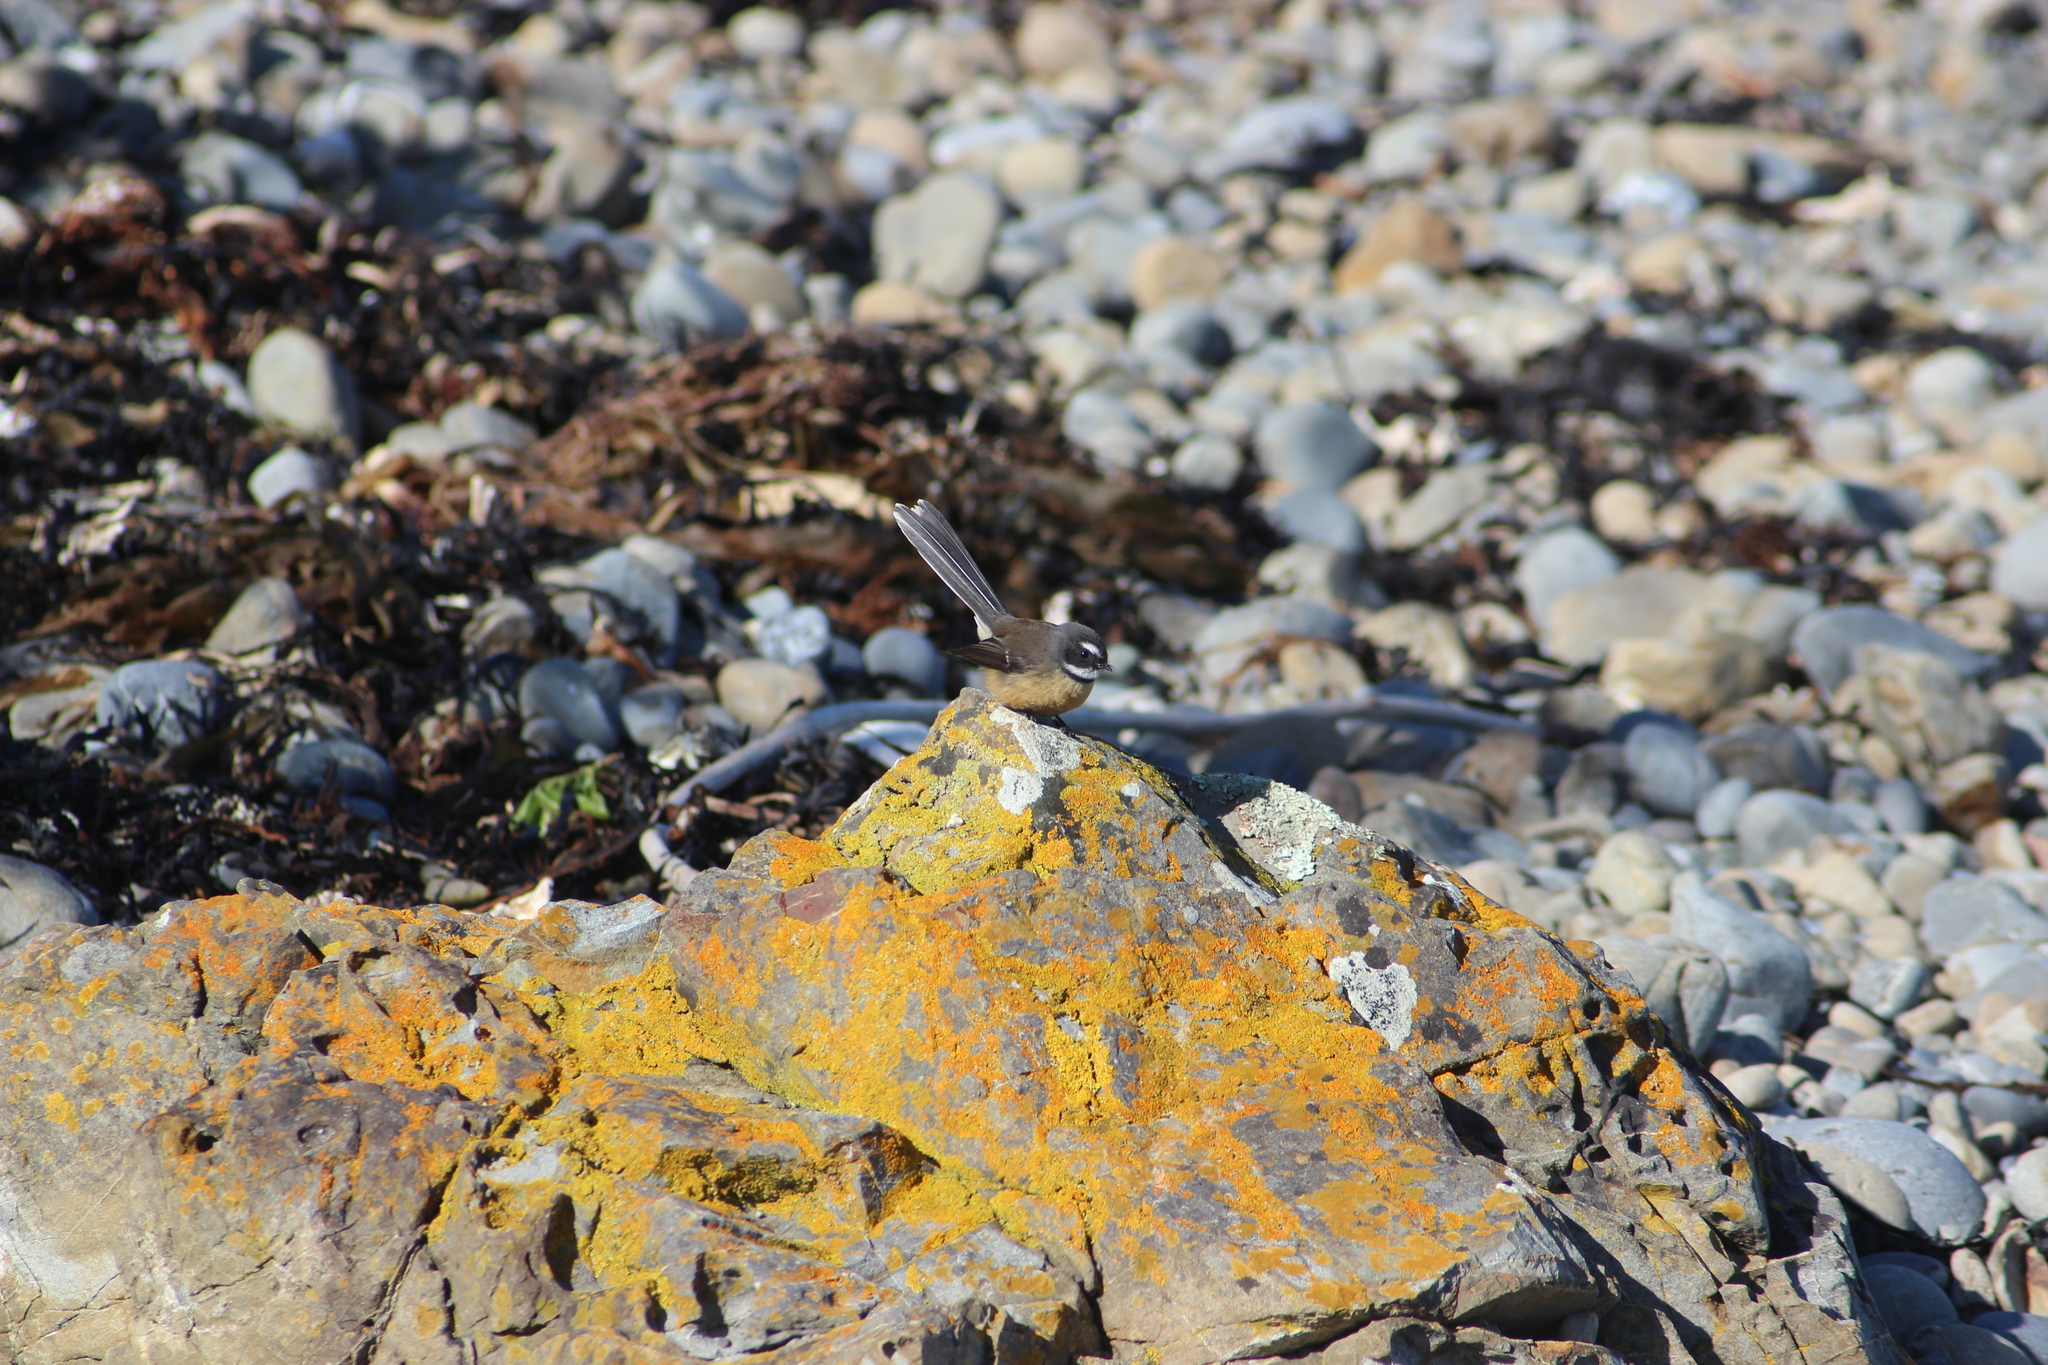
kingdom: Animalia
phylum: Chordata
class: Aves
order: Passeriformes
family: Rhipiduridae
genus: Rhipidura
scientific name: Rhipidura fuliginosa
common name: New zealand fantail
